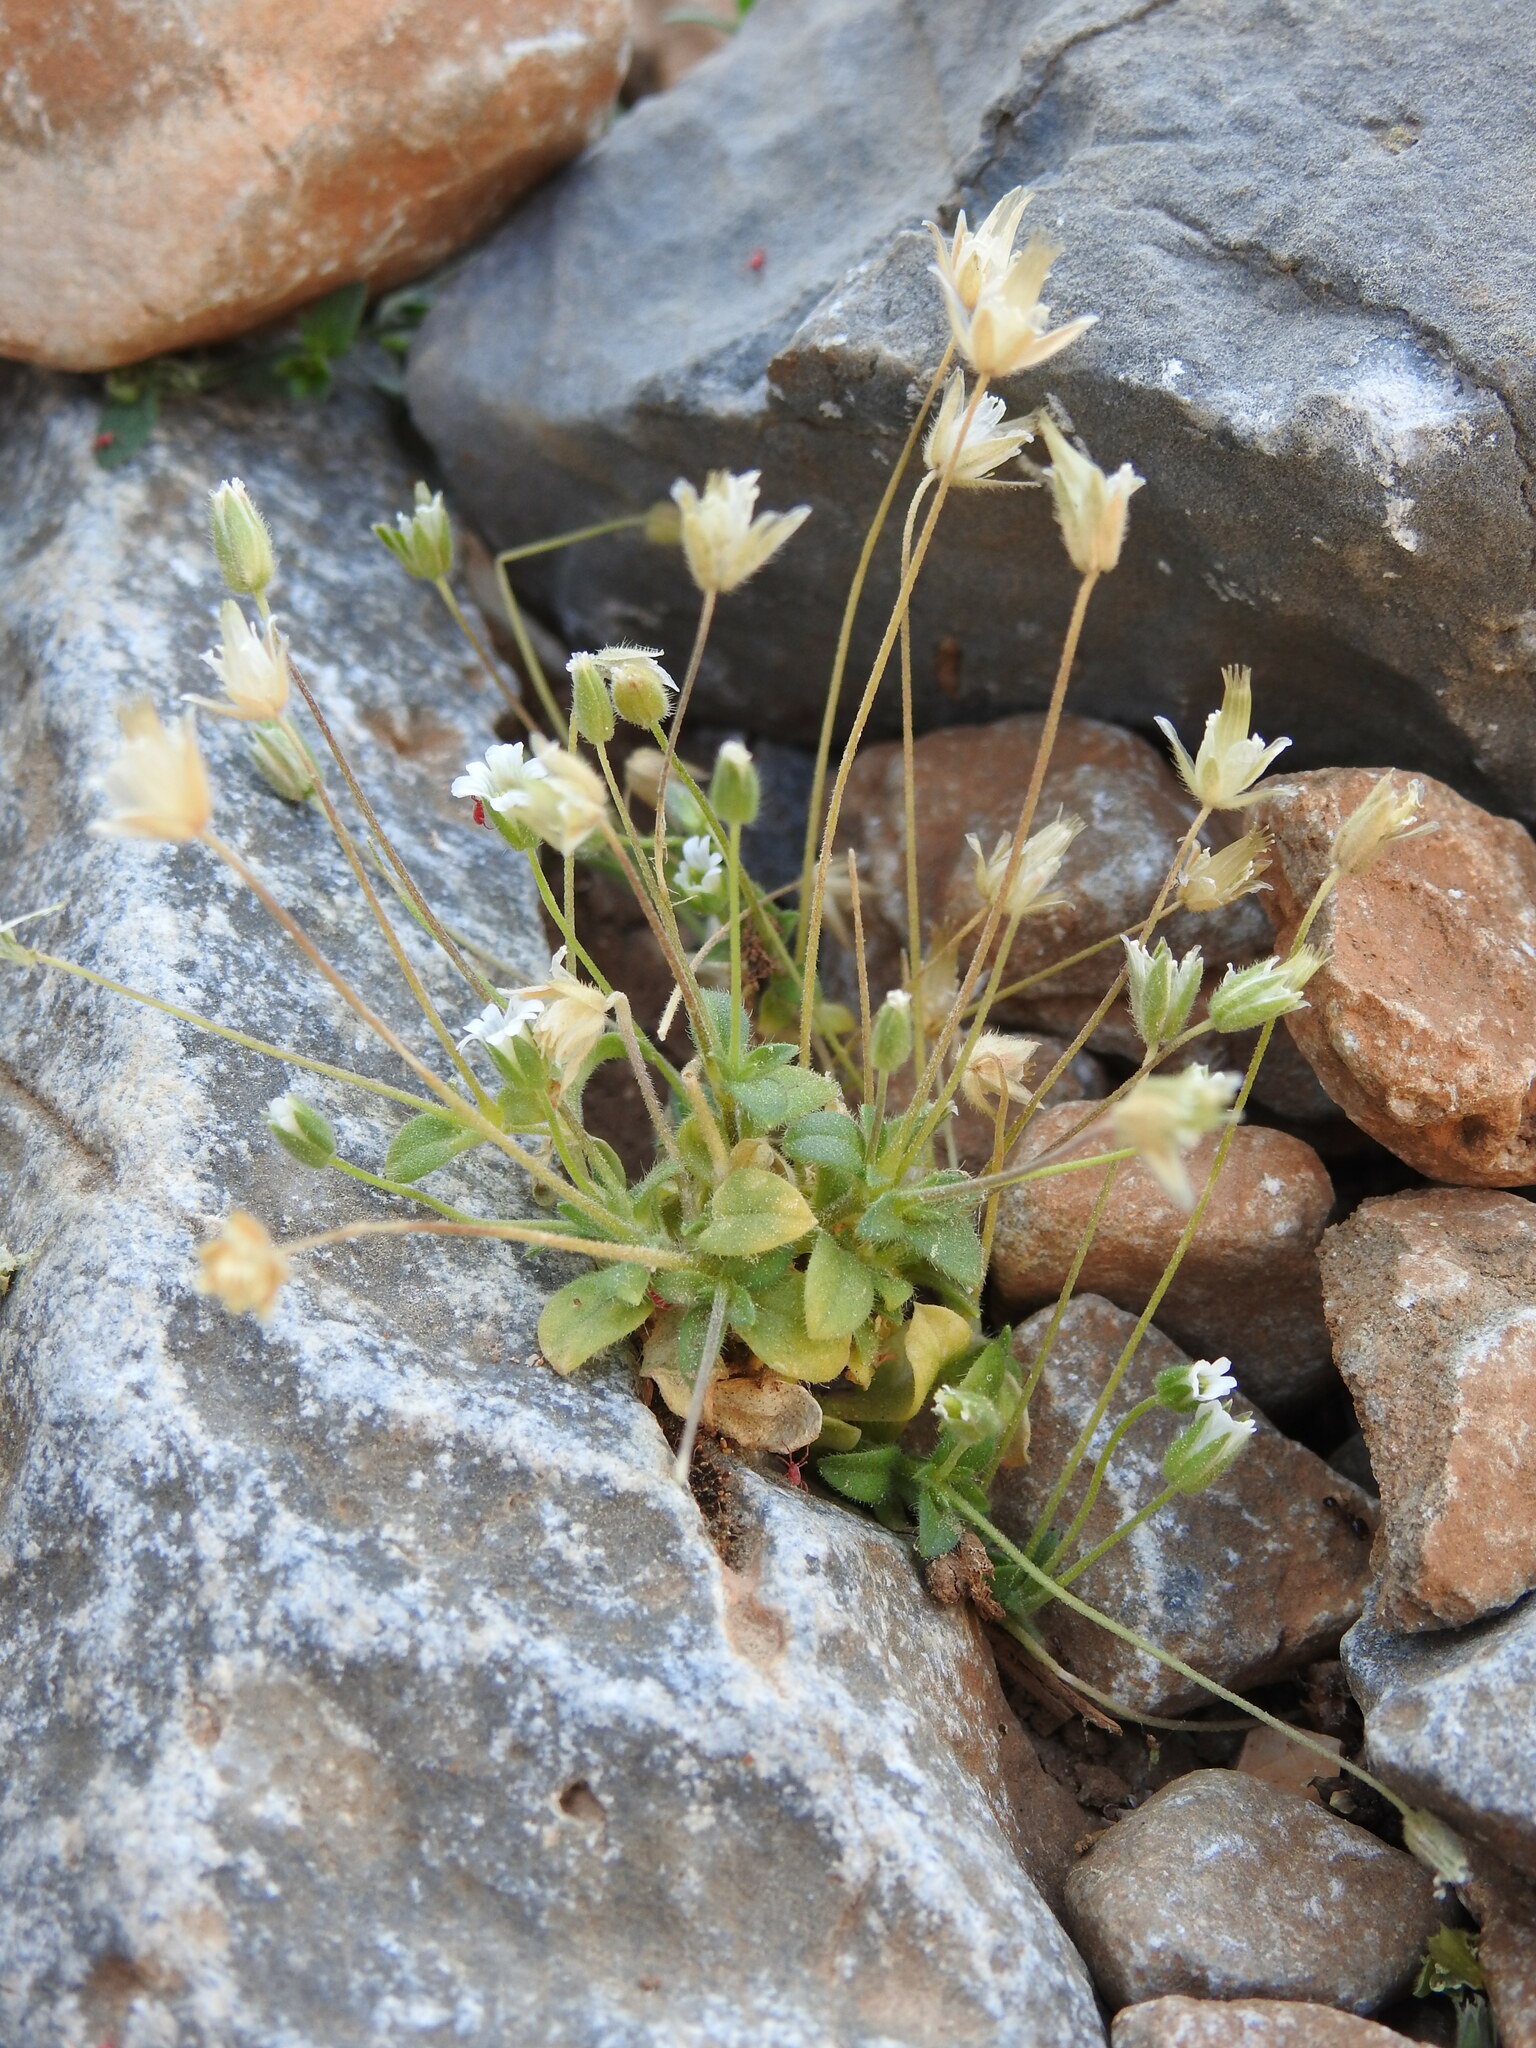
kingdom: Plantae
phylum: Tracheophyta
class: Magnoliopsida
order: Caryophyllales
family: Caryophyllaceae
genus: Cerastium
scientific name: Cerastium scaposum
